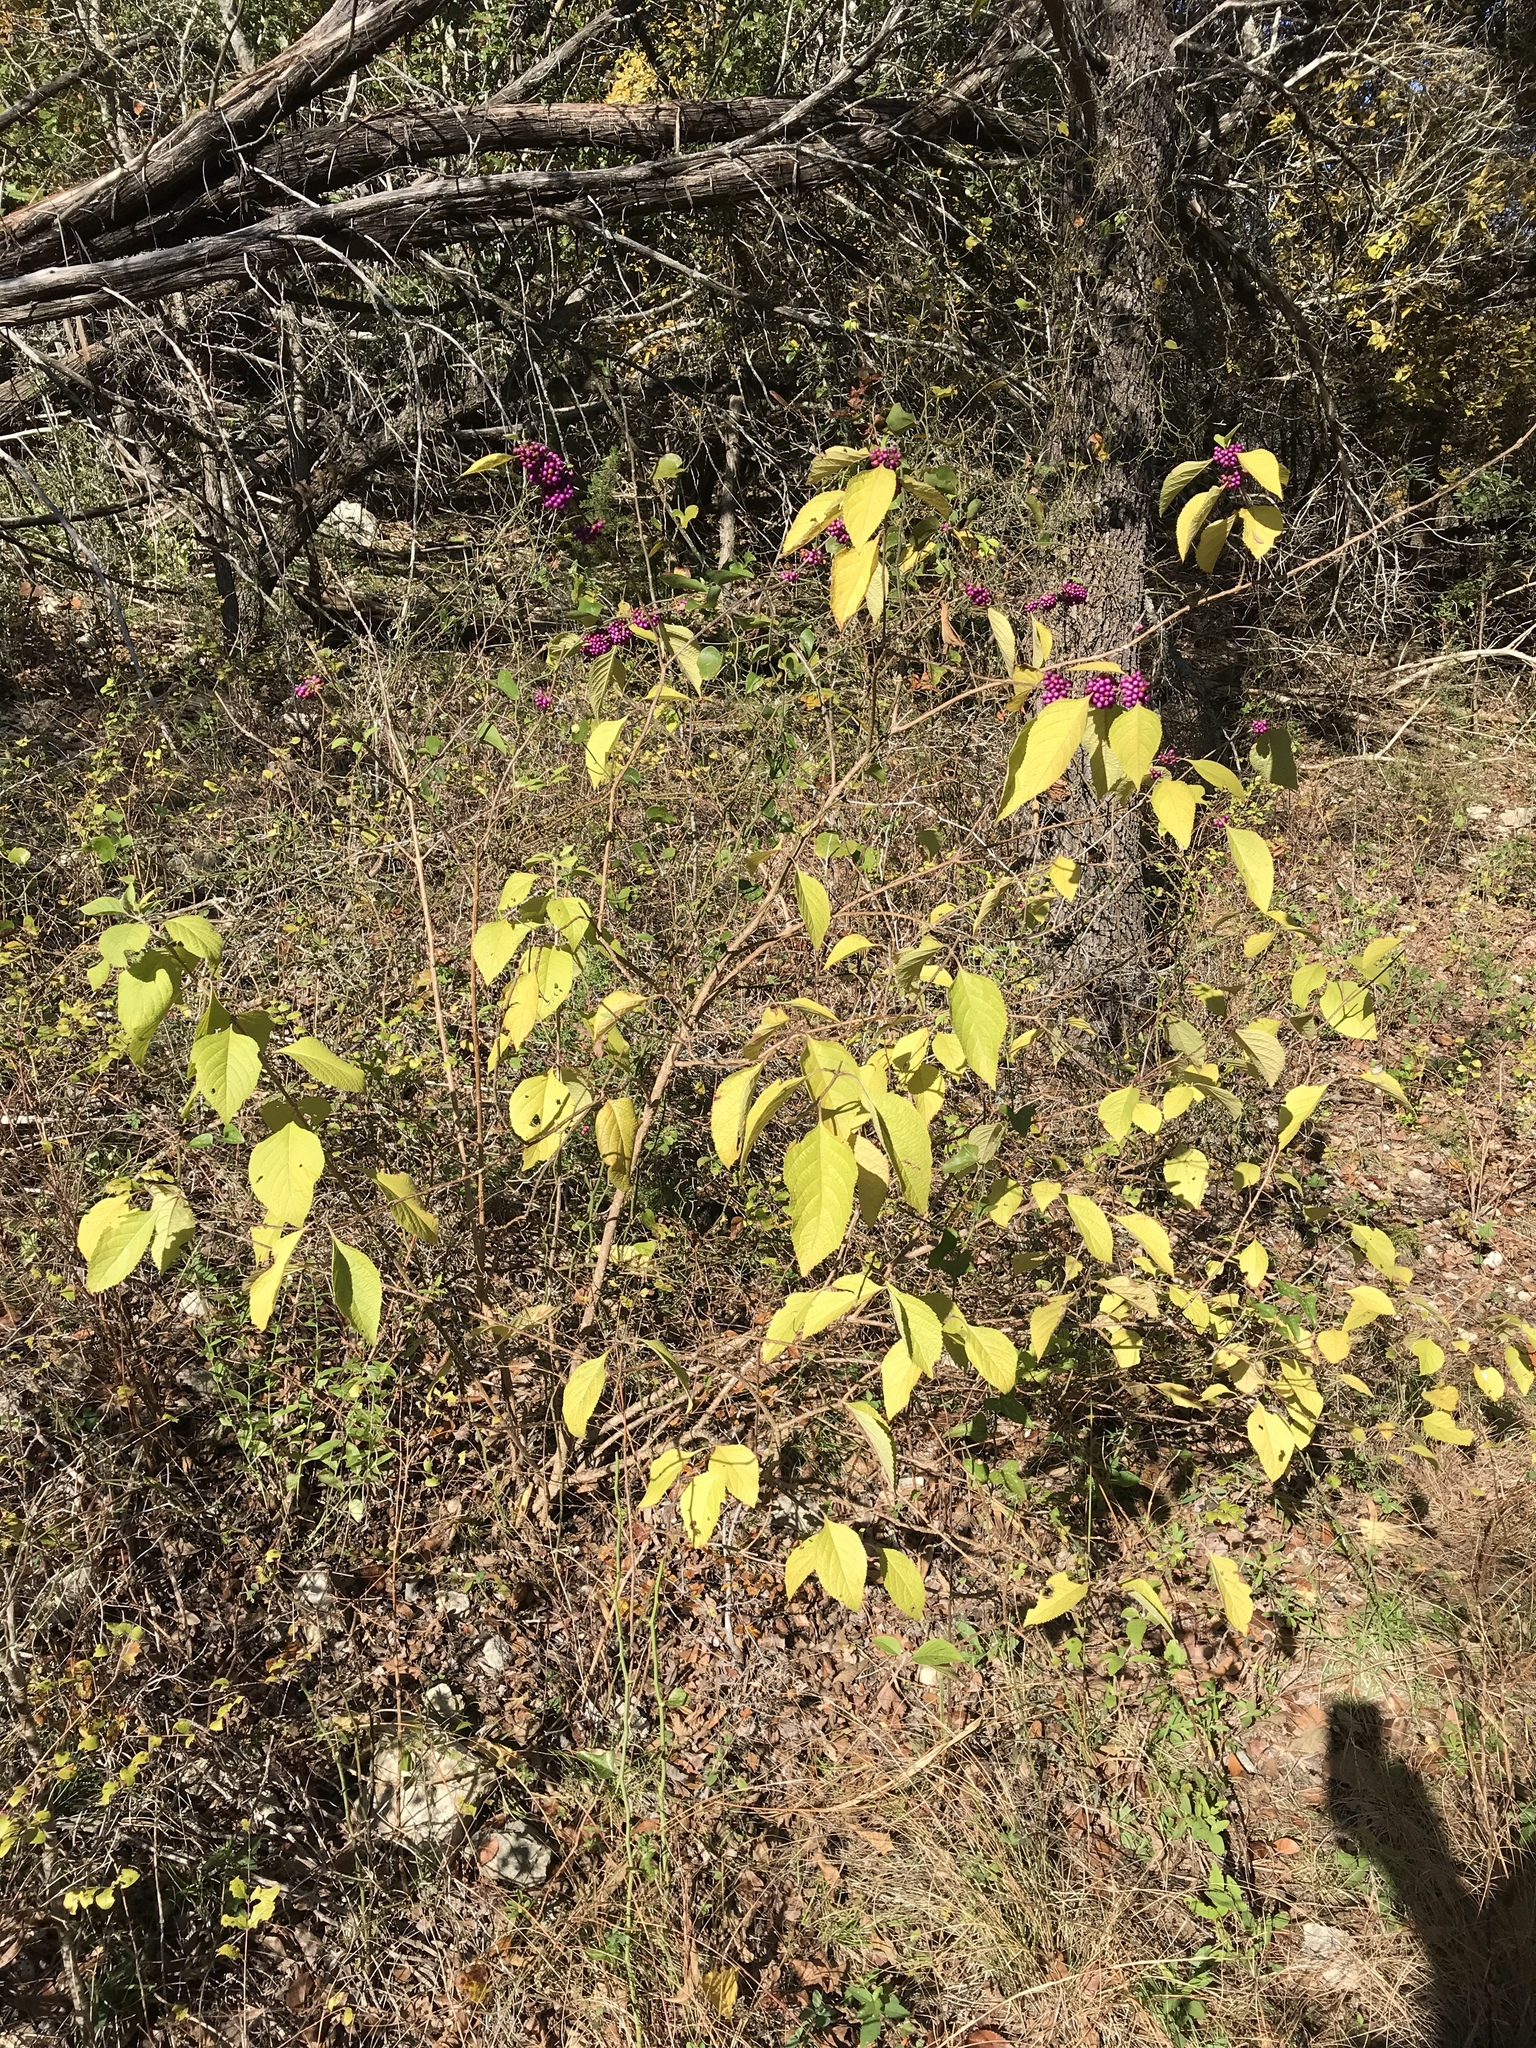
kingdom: Plantae
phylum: Tracheophyta
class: Magnoliopsida
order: Lamiales
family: Lamiaceae
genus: Callicarpa
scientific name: Callicarpa americana
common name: American beautyberry
